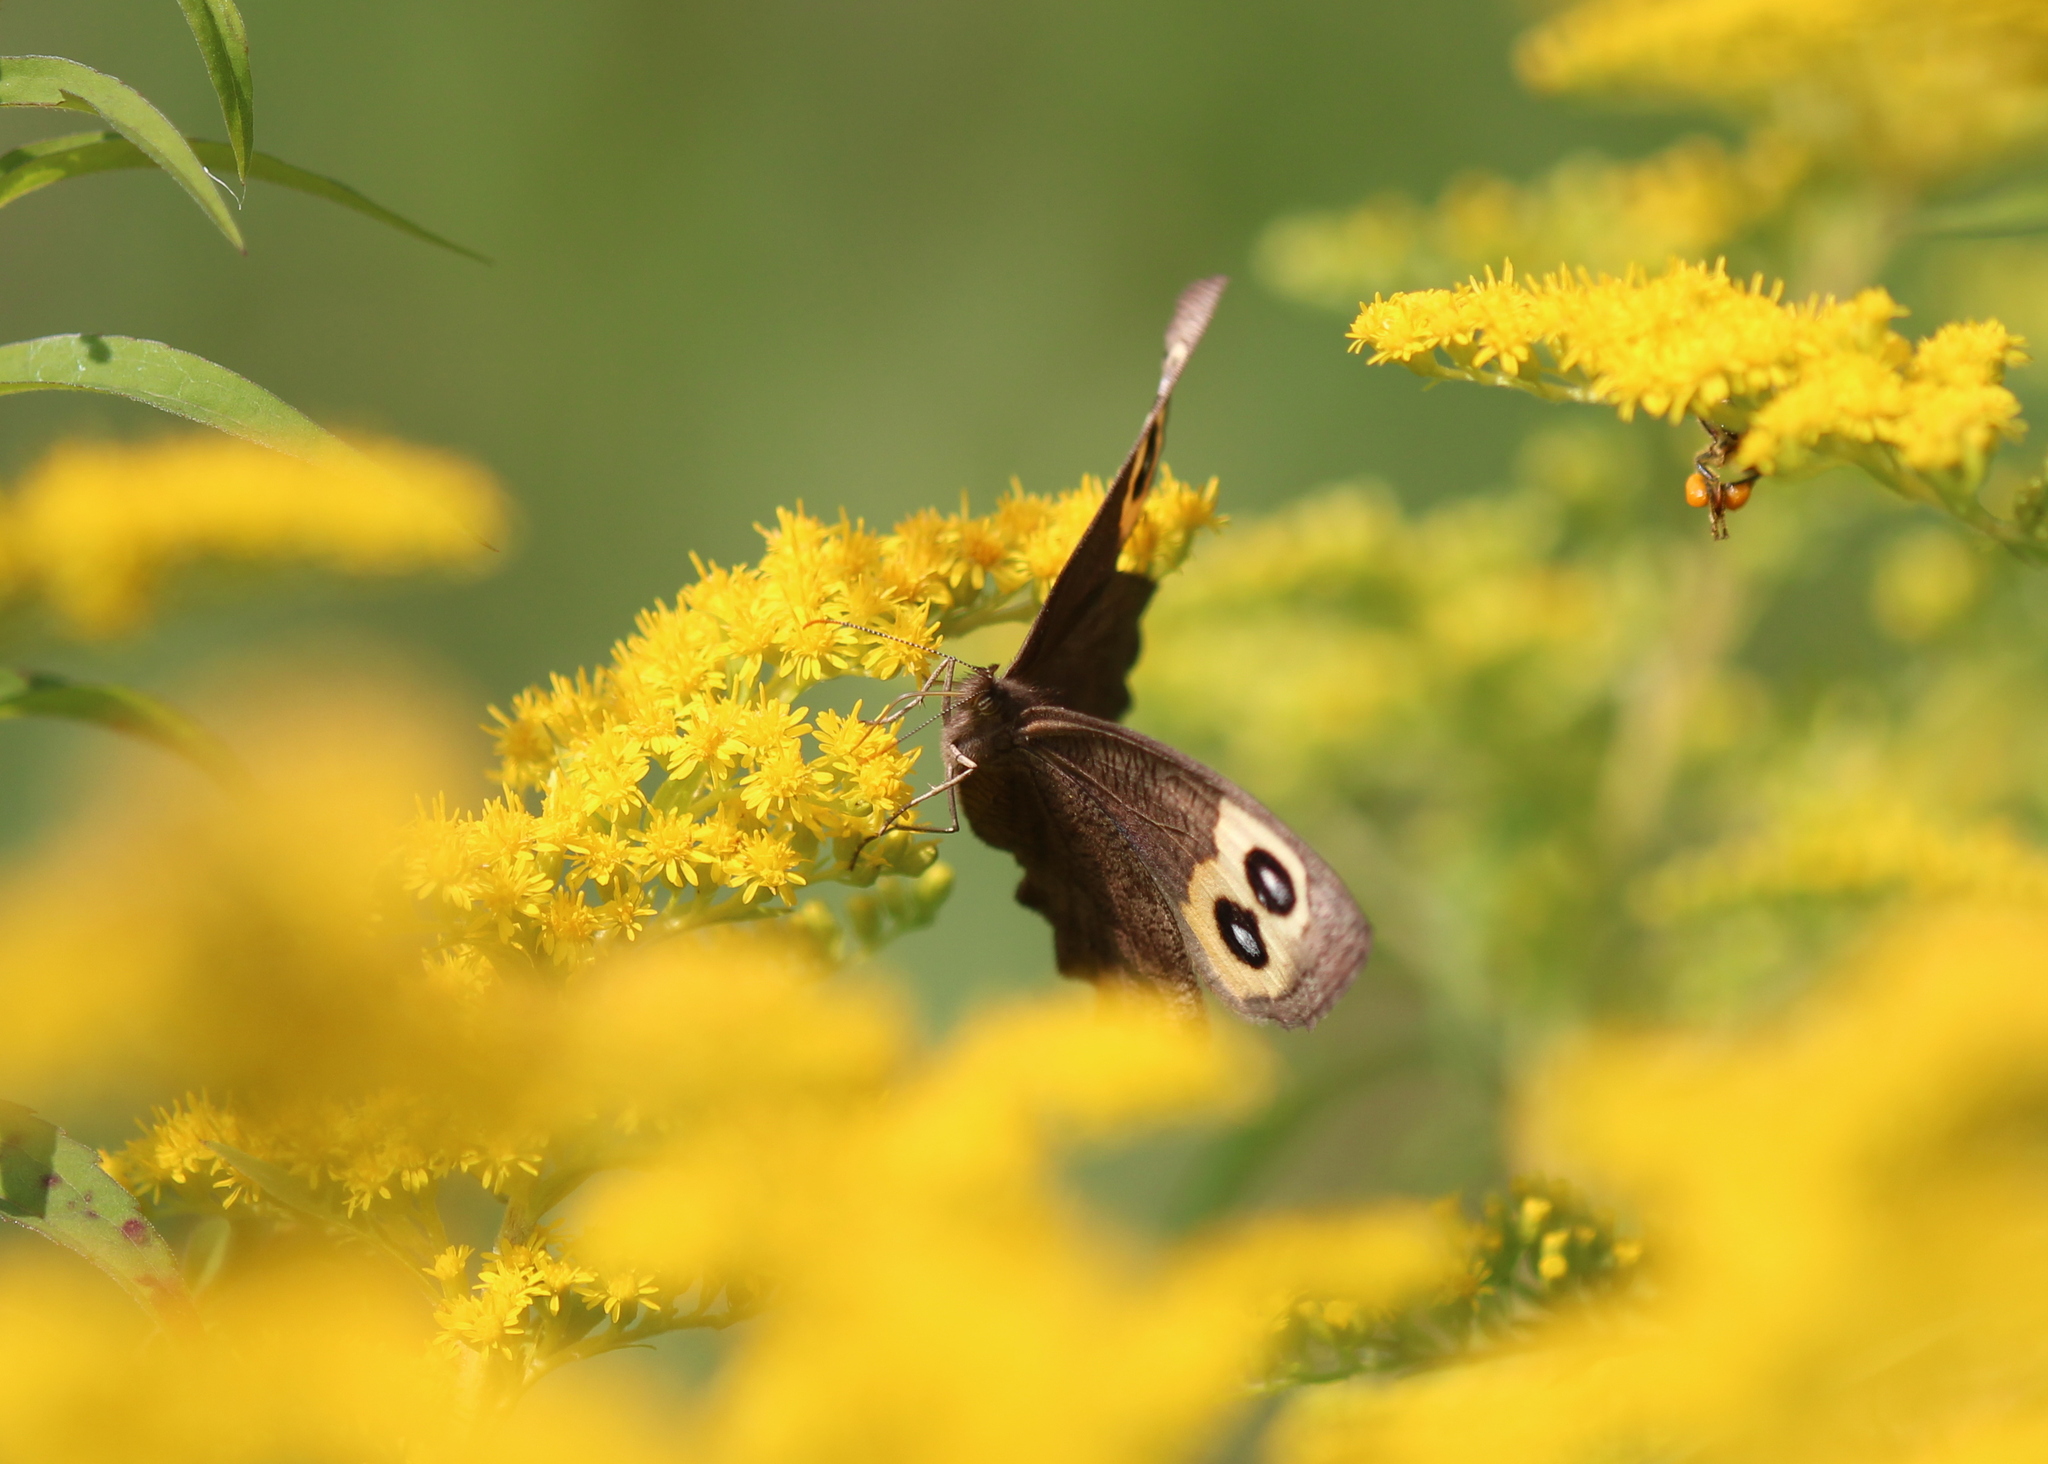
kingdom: Animalia
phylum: Arthropoda
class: Insecta
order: Lepidoptera
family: Nymphalidae
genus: Cercyonis
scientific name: Cercyonis pegala
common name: Common wood-nymph
